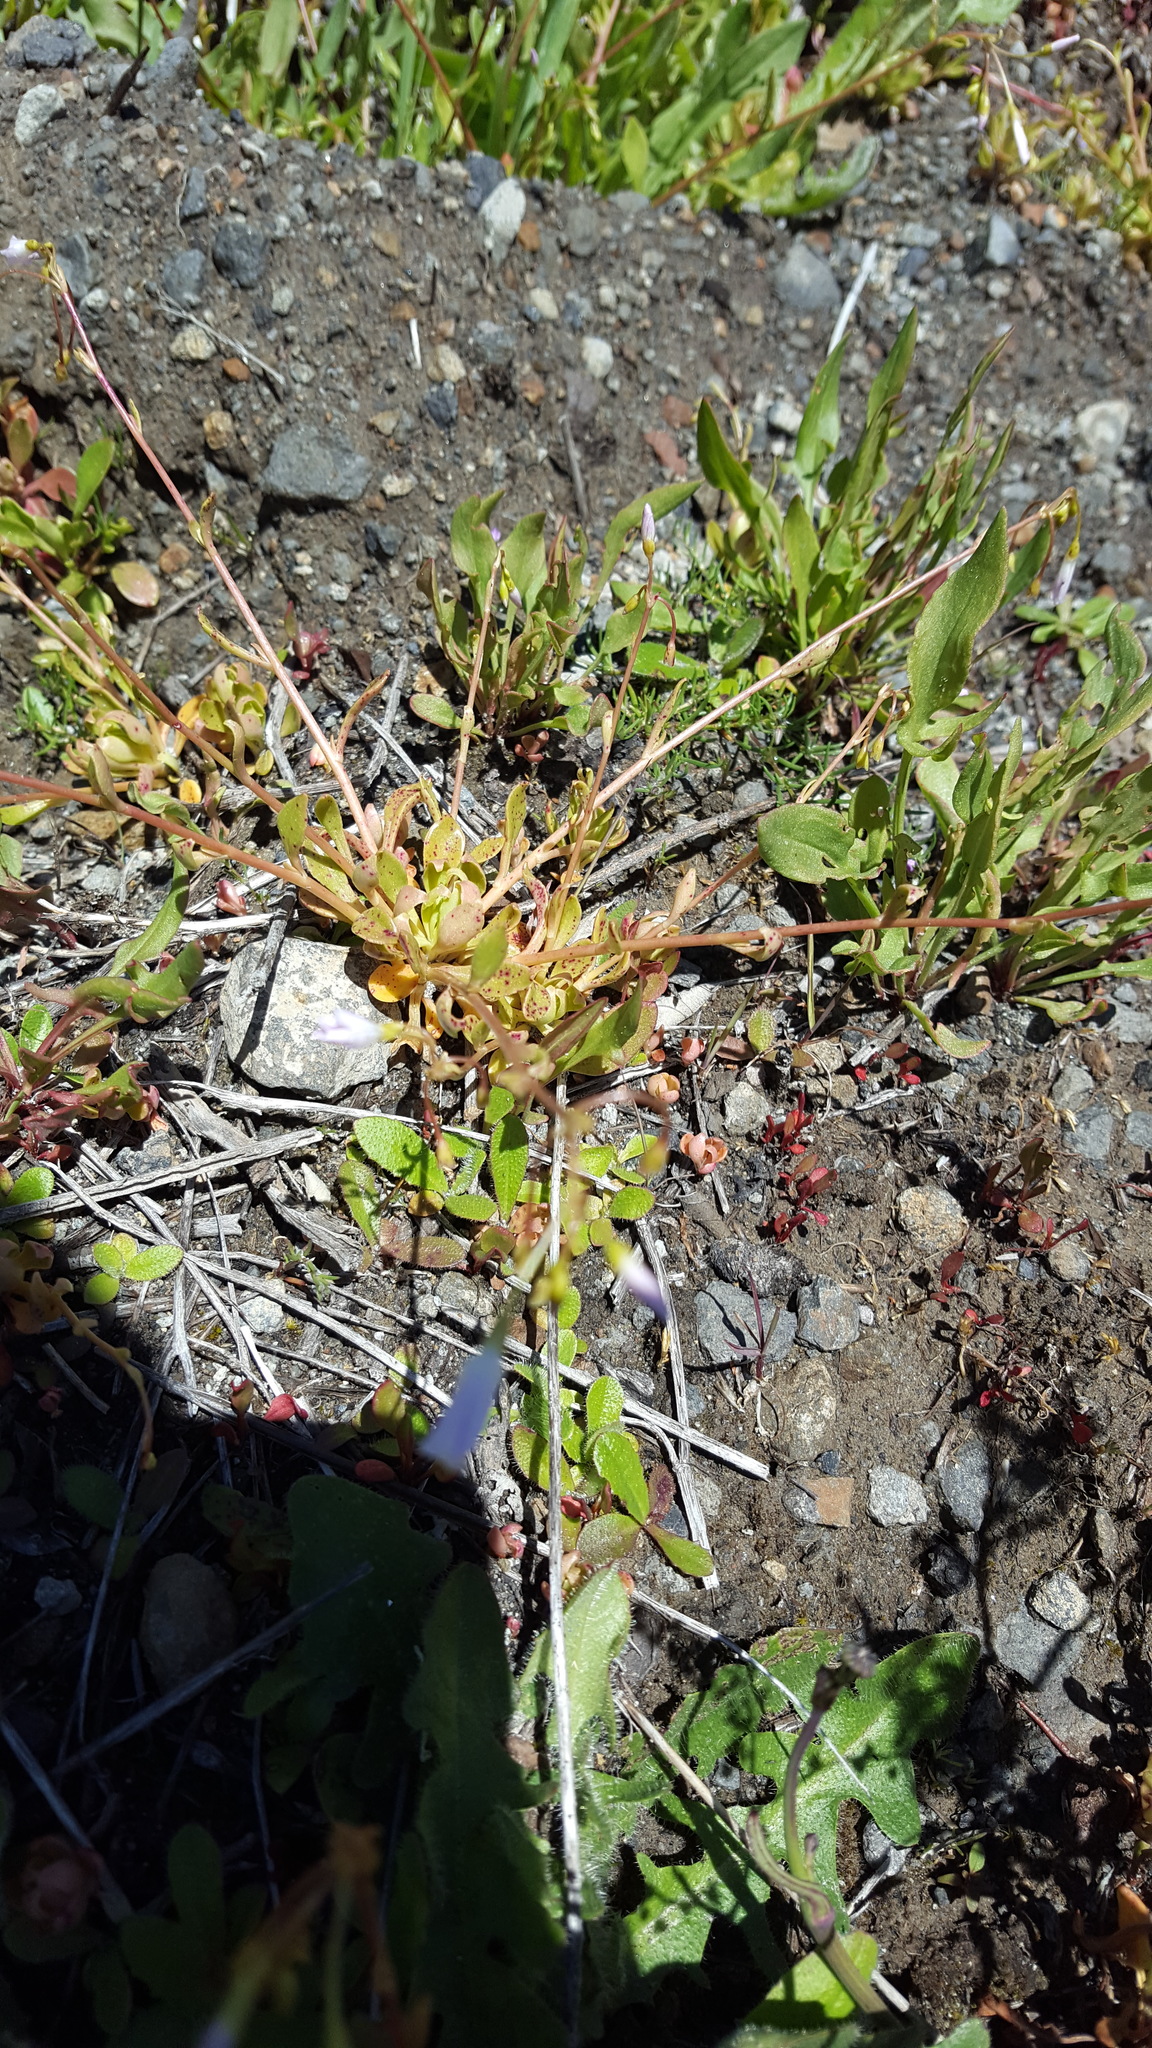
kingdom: Plantae
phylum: Tracheophyta
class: Magnoliopsida
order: Caryophyllales
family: Montiaceae
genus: Montia
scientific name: Montia parvifolia
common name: Small-leaved blinks
